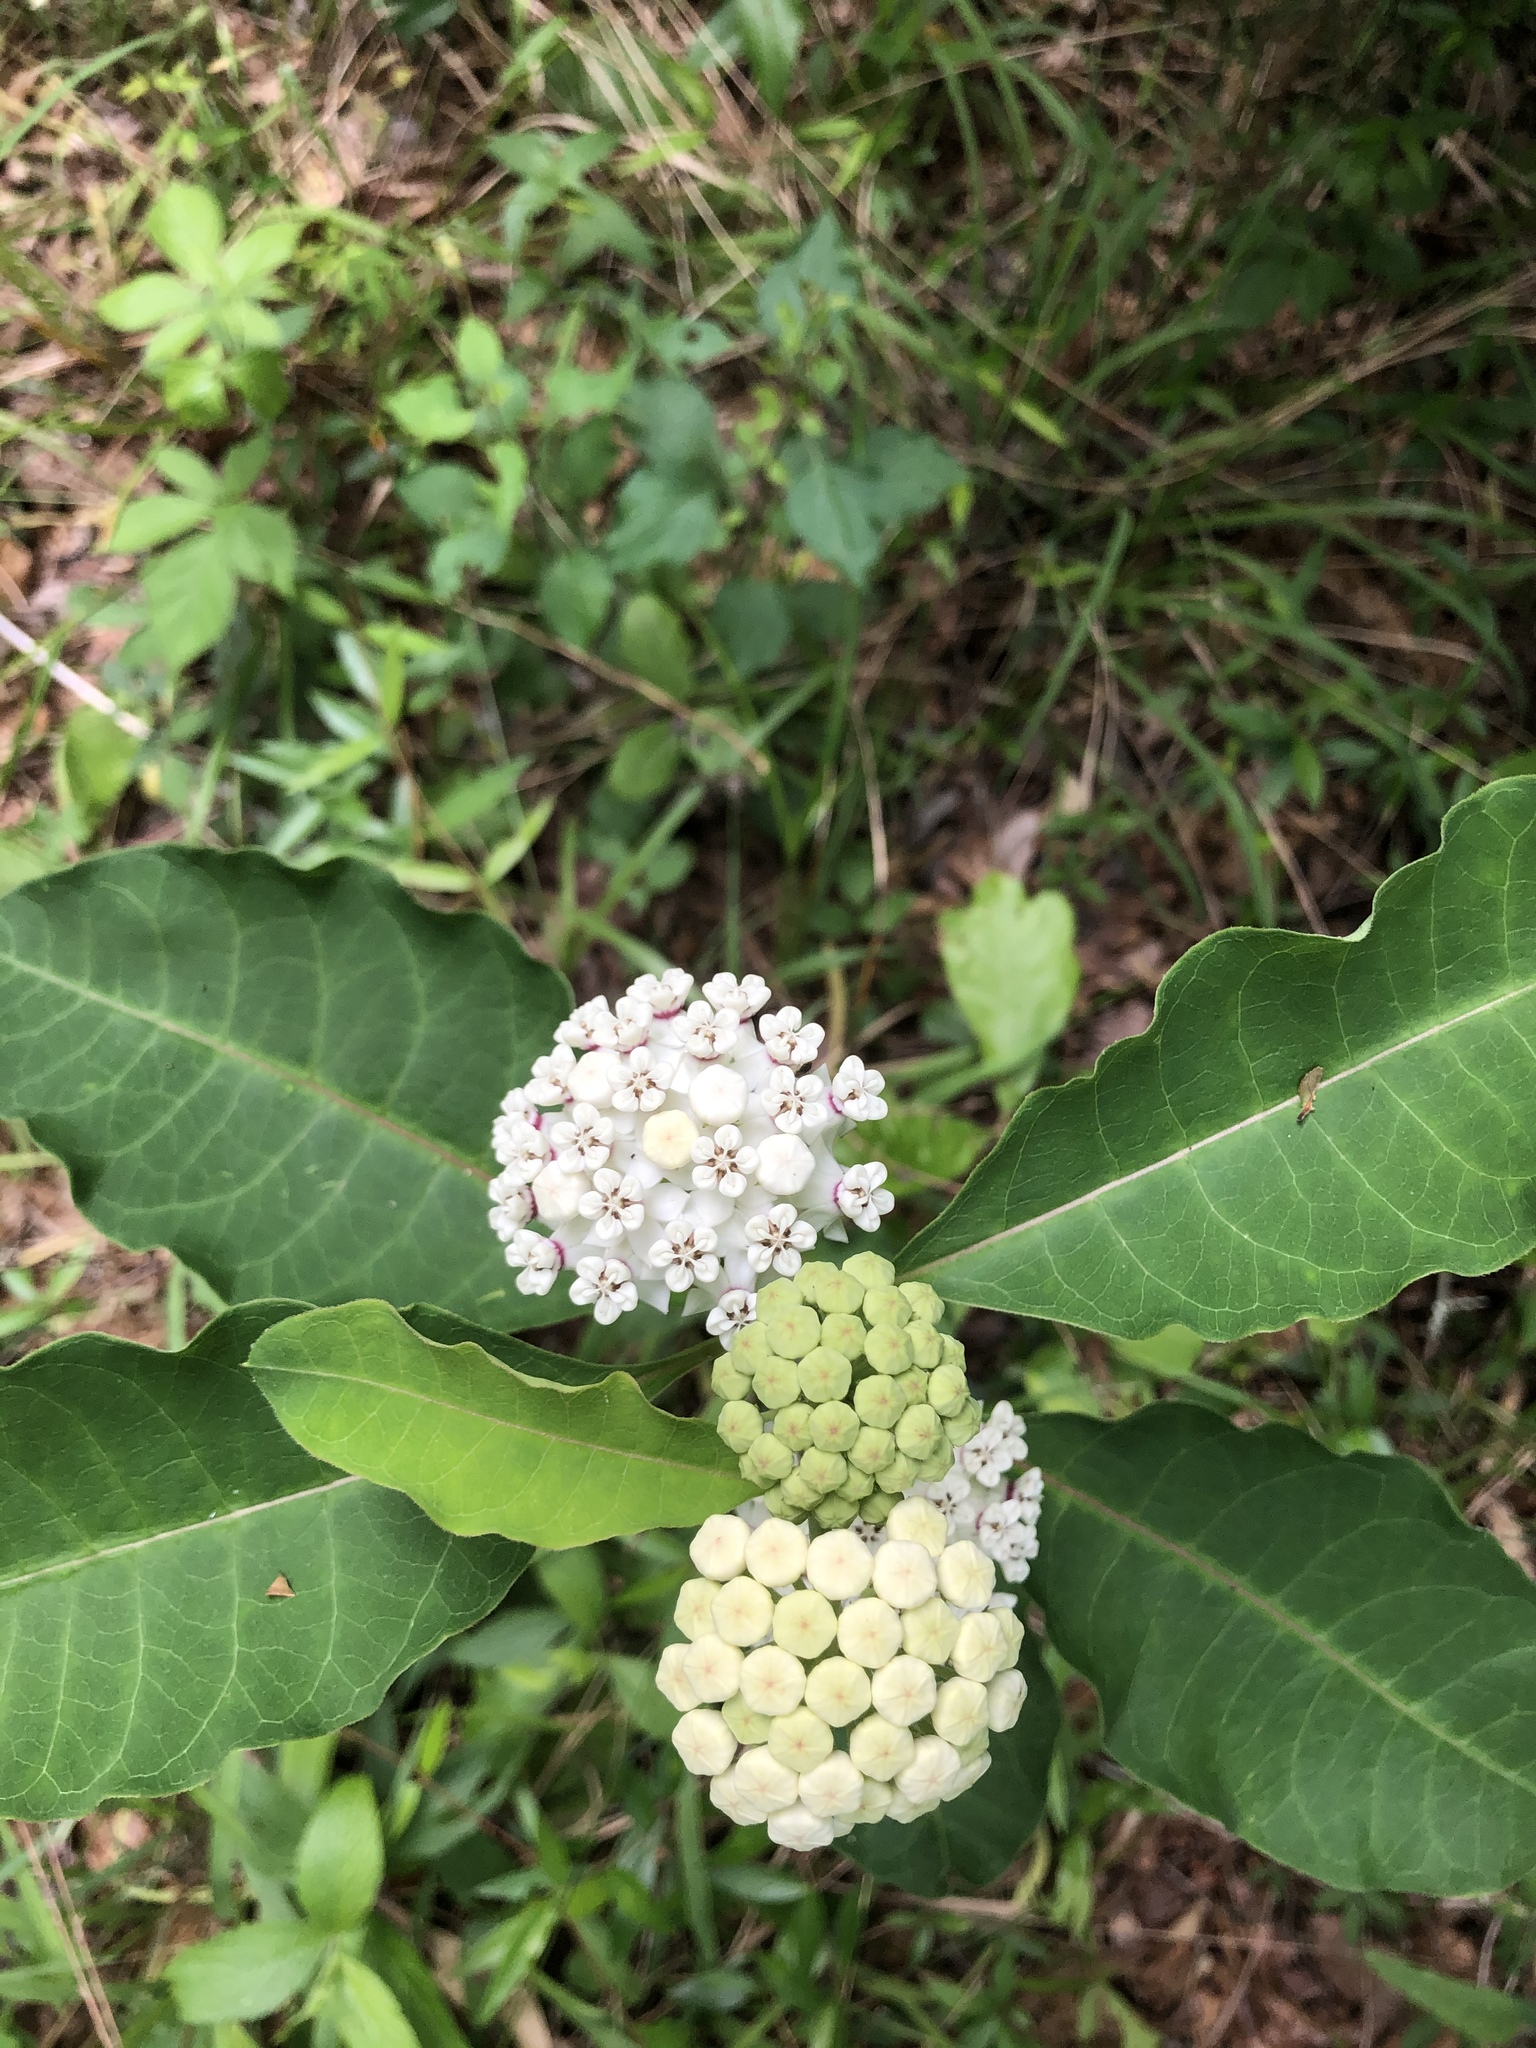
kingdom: Plantae
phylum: Tracheophyta
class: Magnoliopsida
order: Gentianales
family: Apocynaceae
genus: Asclepias
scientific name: Asclepias variegata
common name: Variegated milkweed
